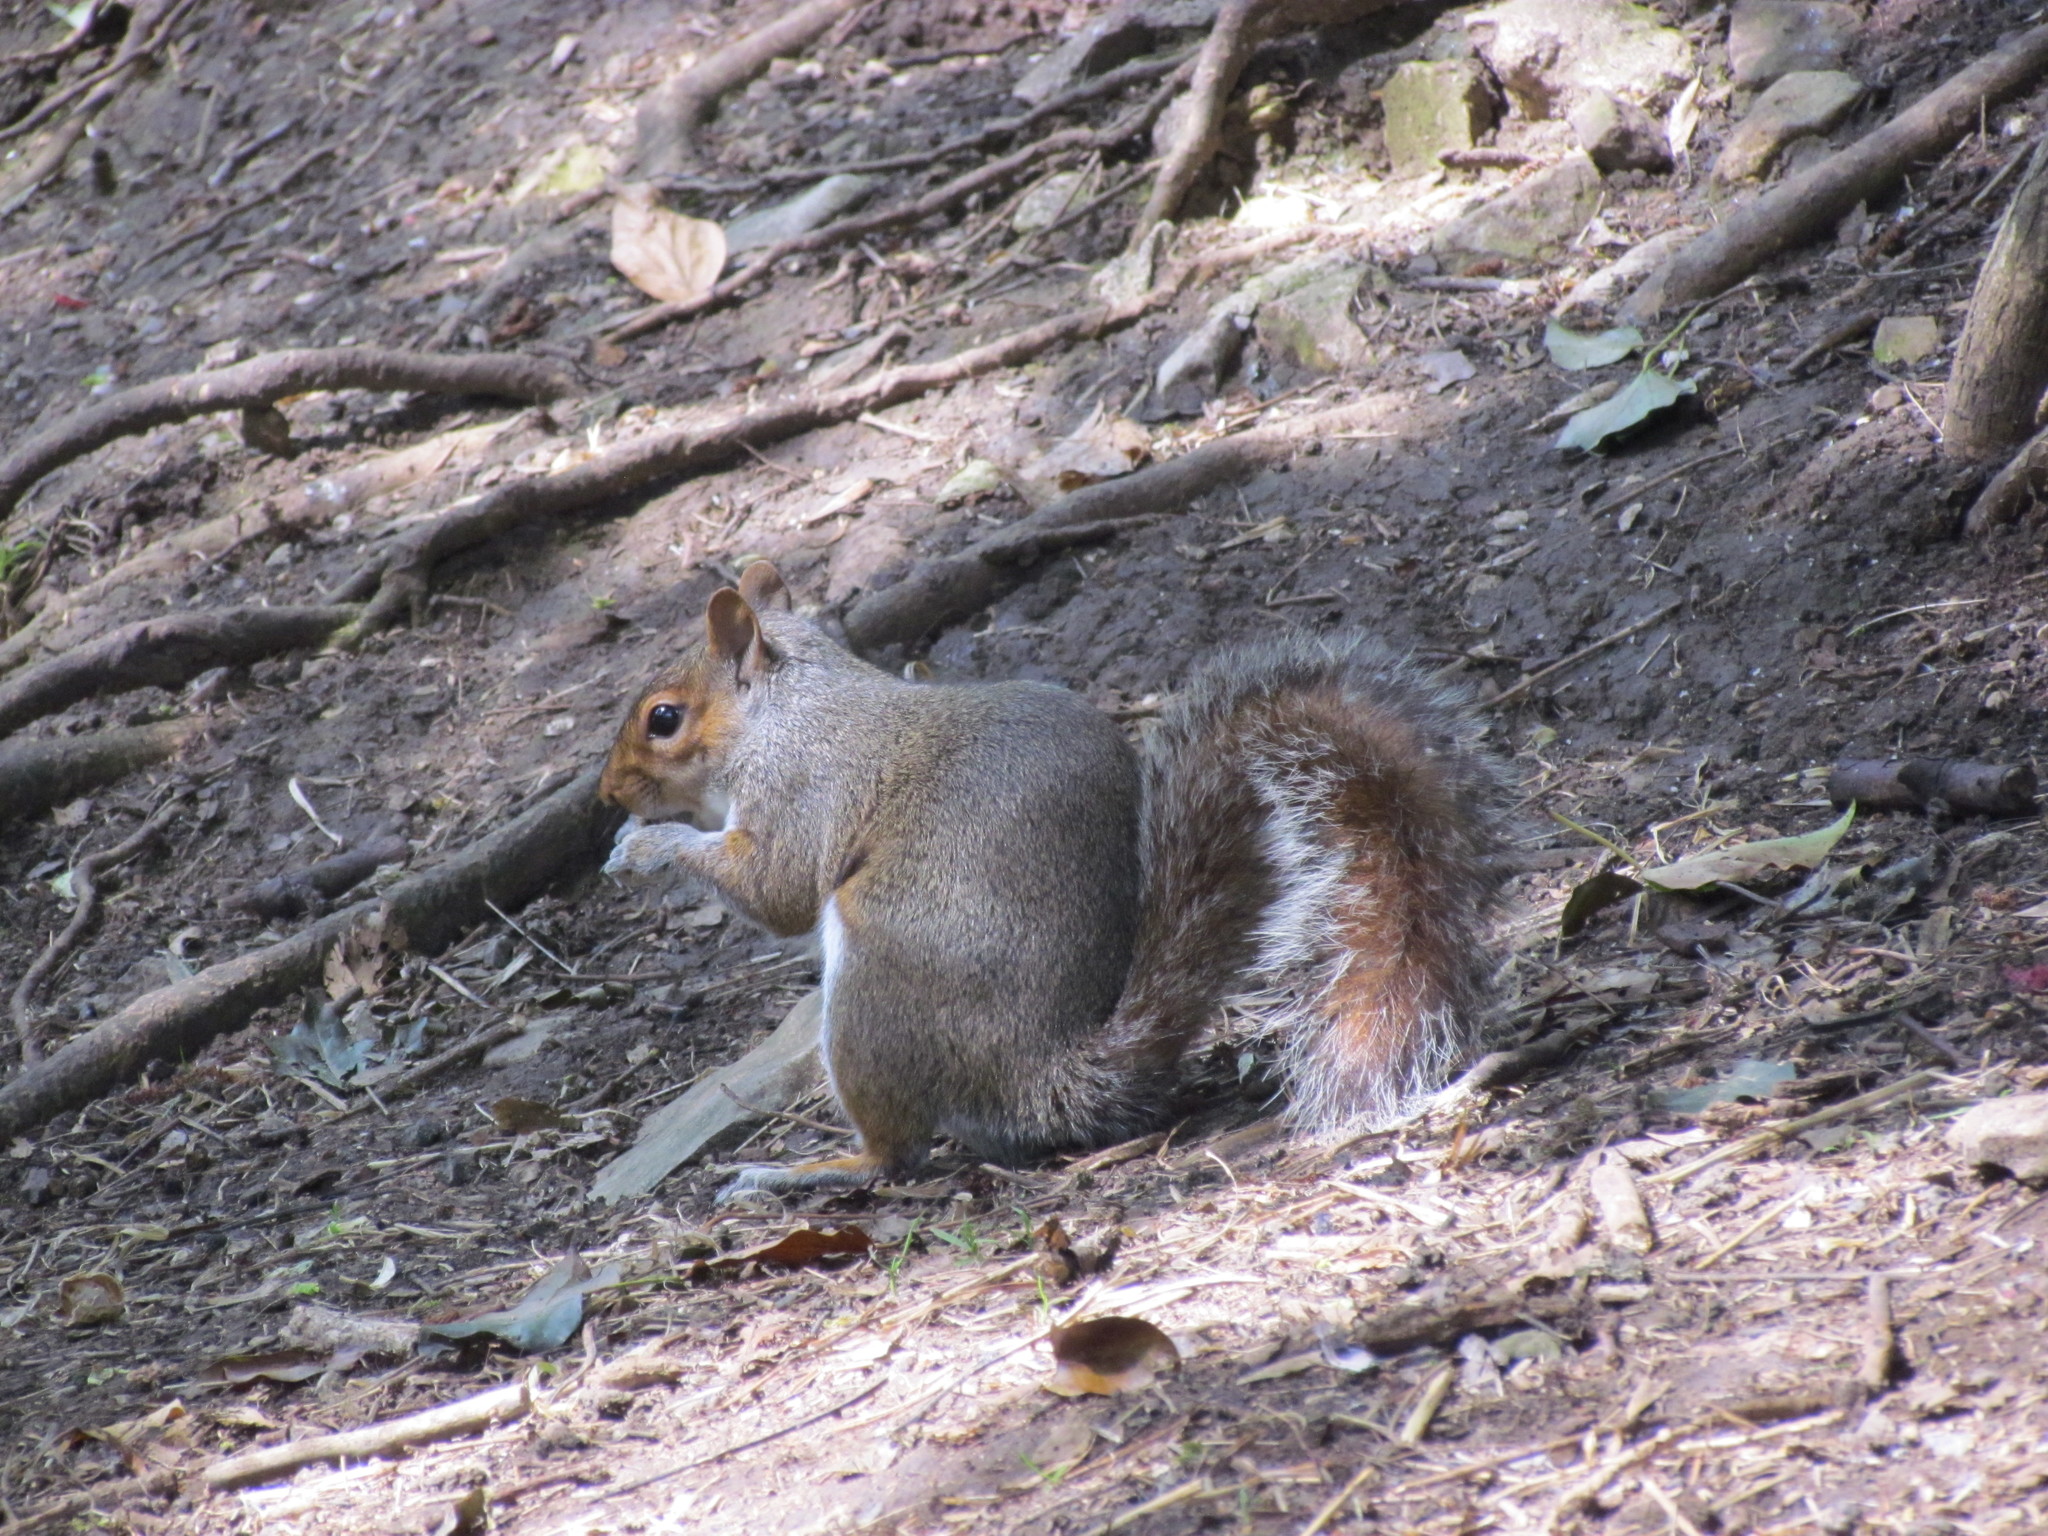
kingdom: Animalia
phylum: Chordata
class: Mammalia
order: Rodentia
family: Sciuridae
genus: Sciurus
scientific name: Sciurus carolinensis
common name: Eastern gray squirrel
